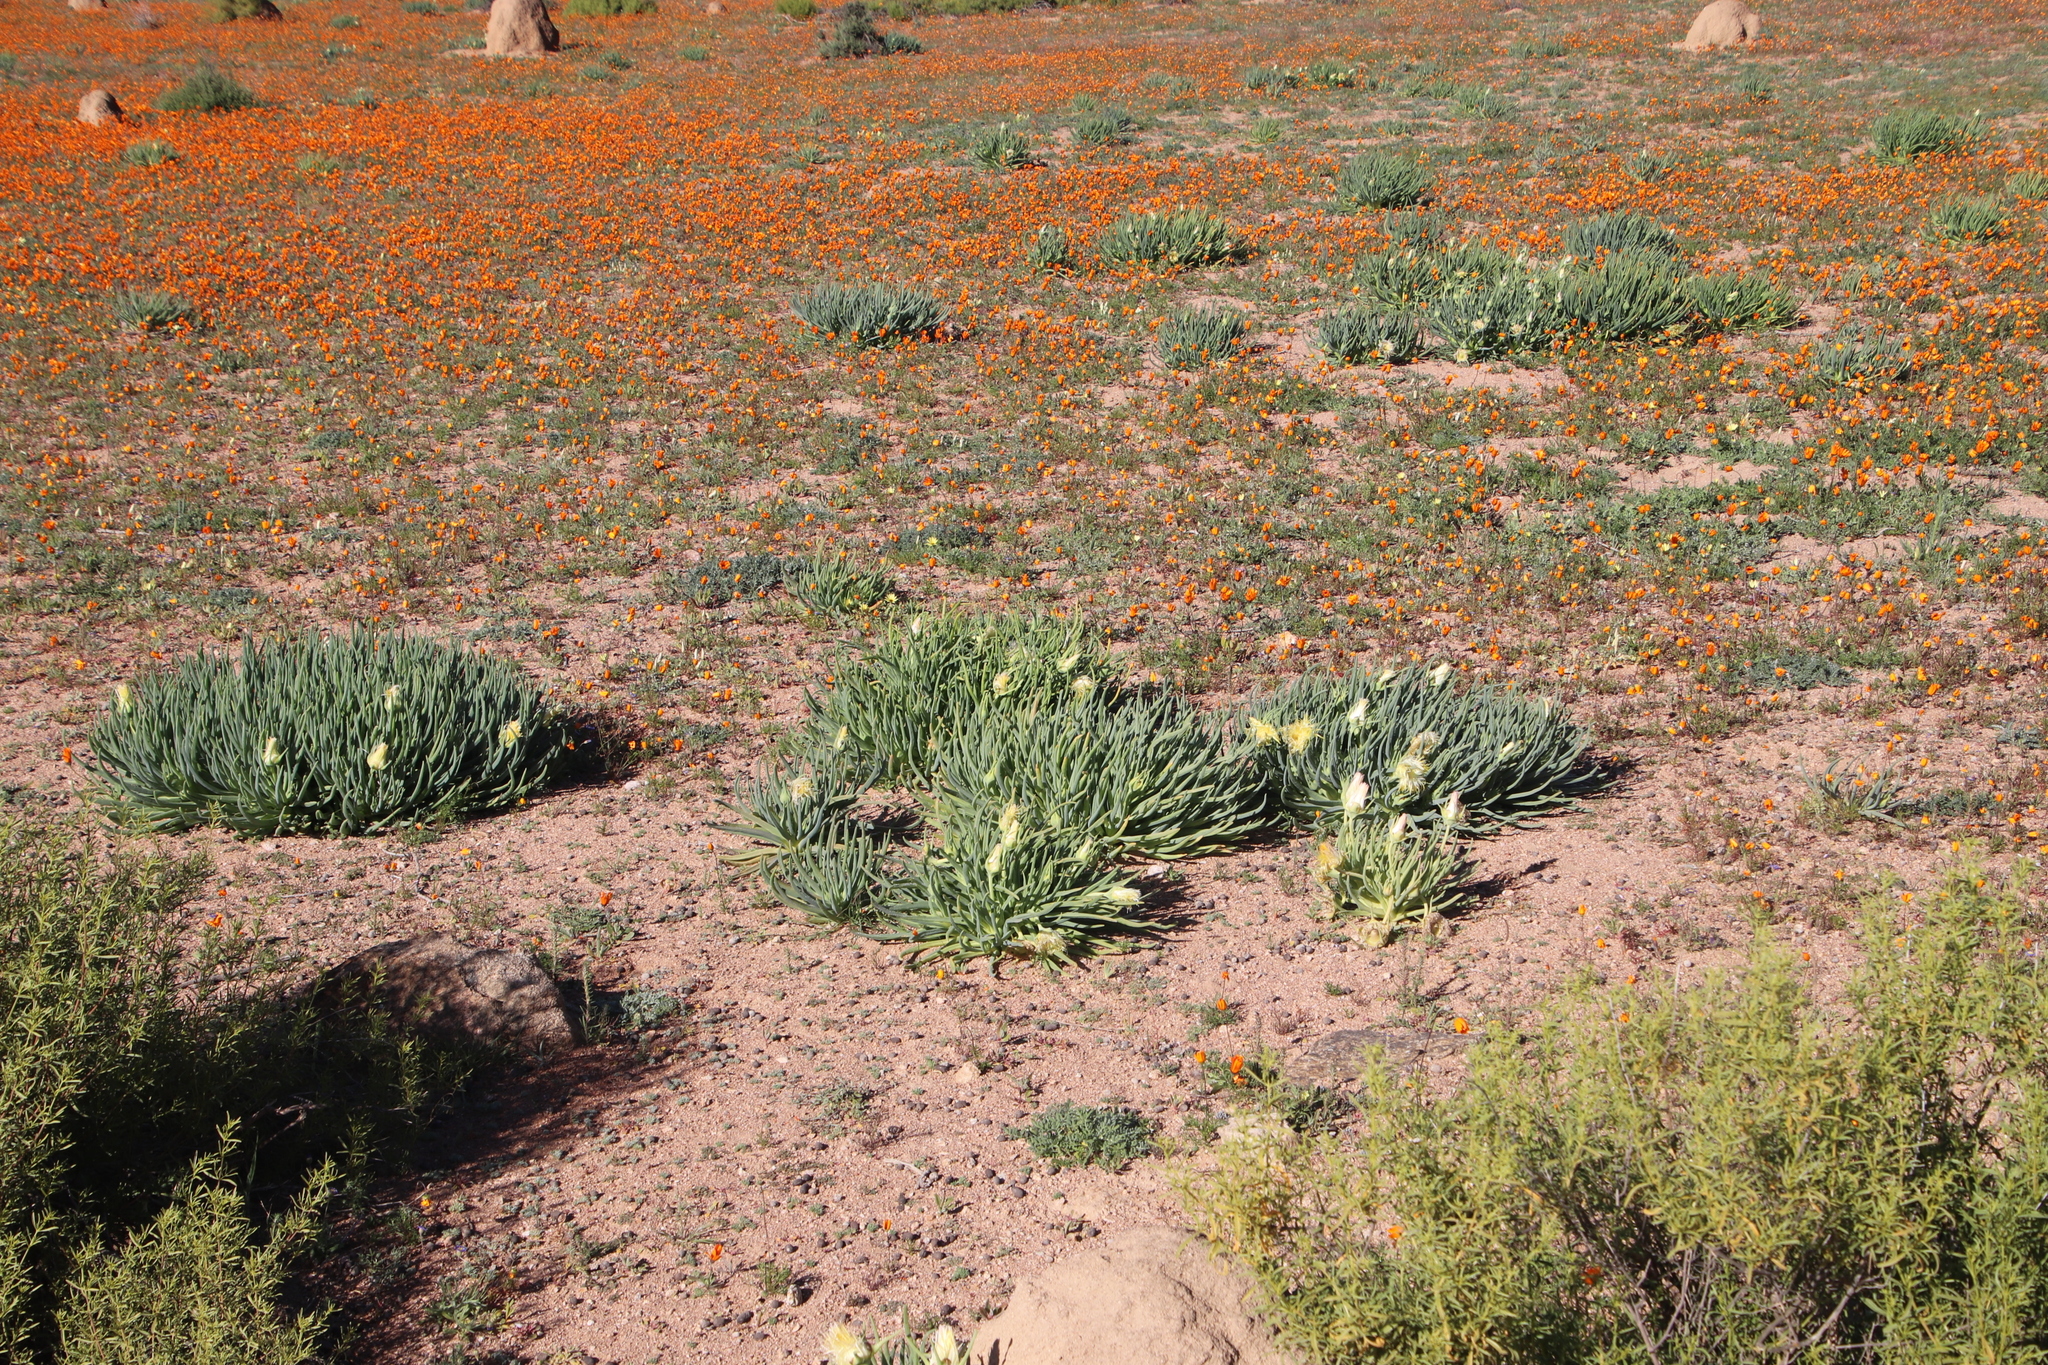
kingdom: Plantae
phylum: Tracheophyta
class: Magnoliopsida
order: Caryophyllales
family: Aizoaceae
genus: Conicosia
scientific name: Conicosia pugioniformis
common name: Narrow-leaved iceplant
